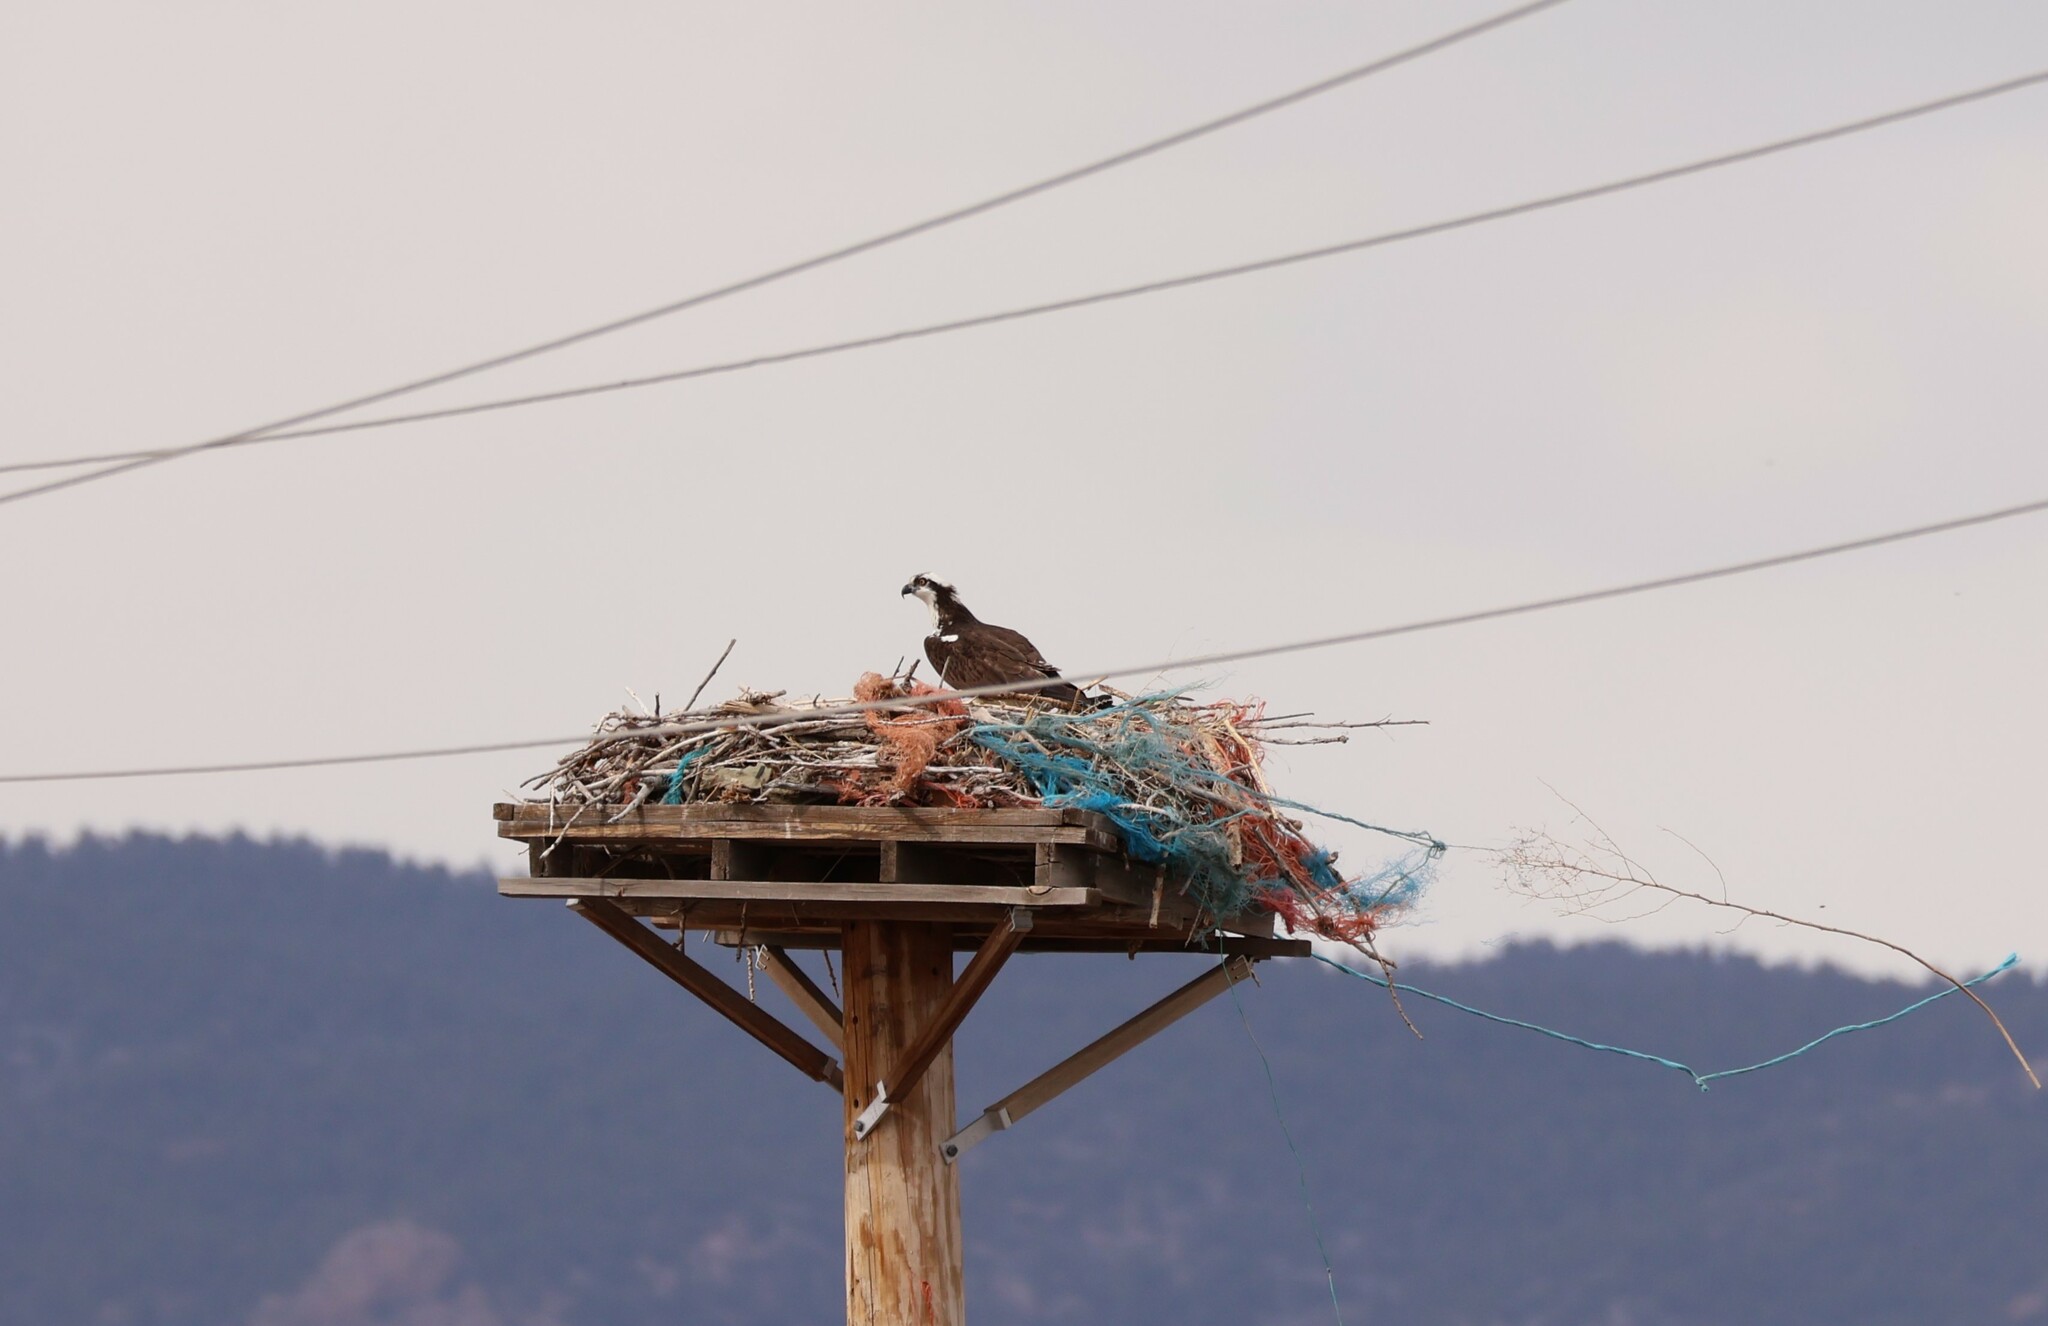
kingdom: Animalia
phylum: Chordata
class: Aves
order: Accipitriformes
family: Pandionidae
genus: Pandion
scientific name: Pandion haliaetus
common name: Osprey
